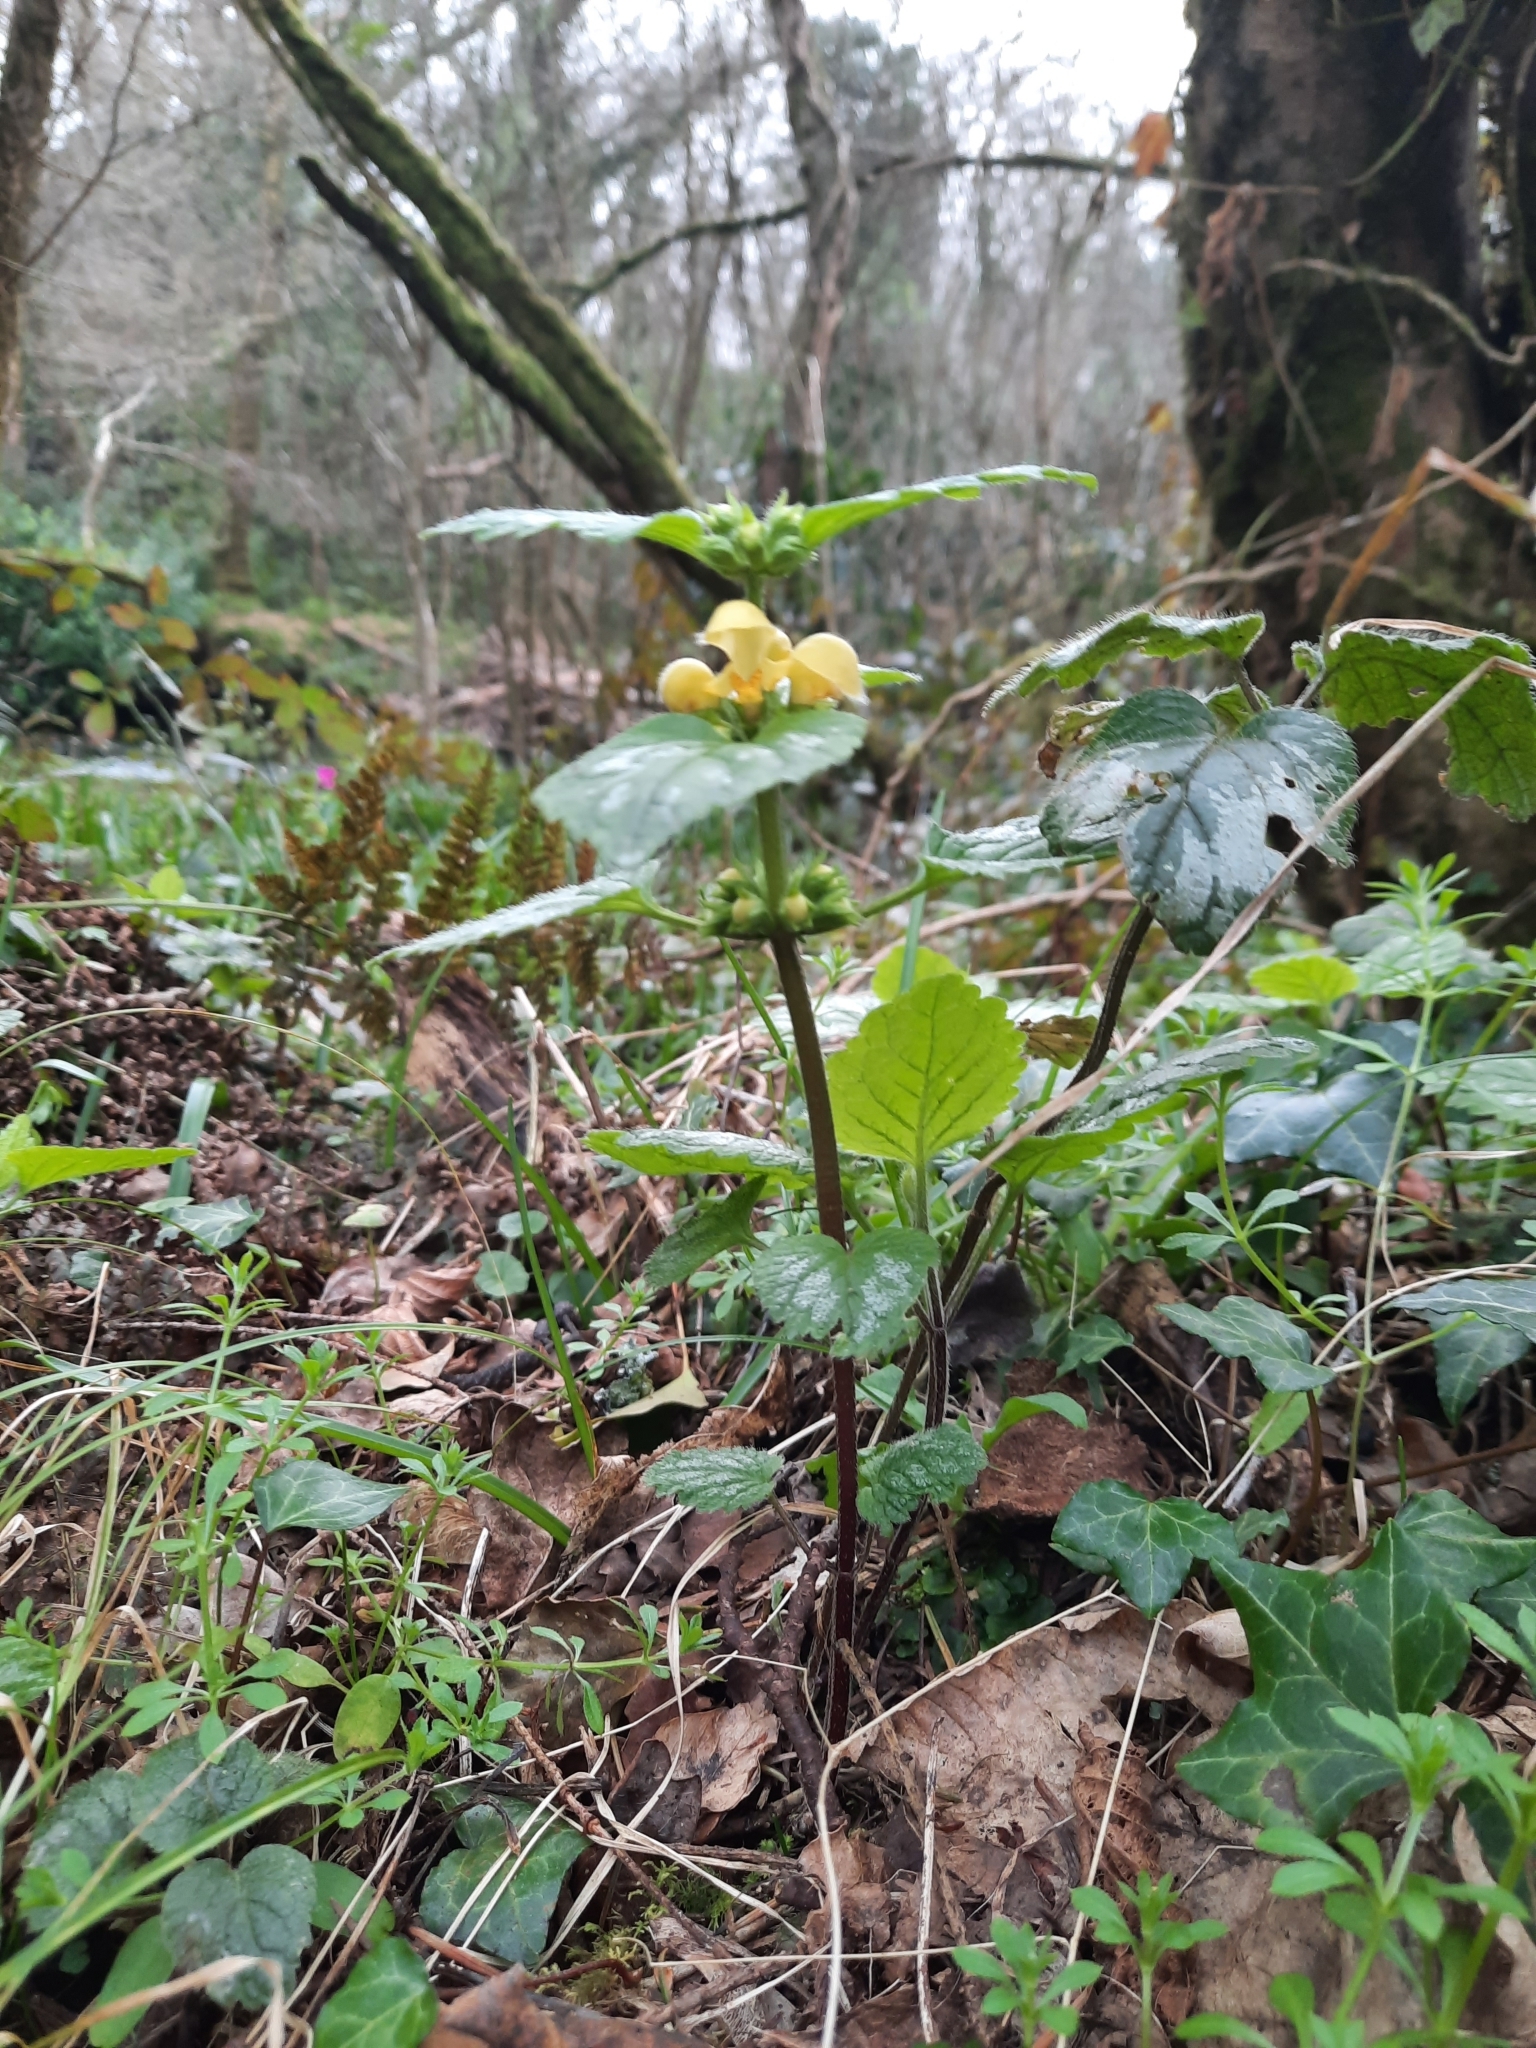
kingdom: Plantae
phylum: Tracheophyta
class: Magnoliopsida
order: Lamiales
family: Lamiaceae
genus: Lamium
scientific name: Lamium galeobdolon
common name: Yellow archangel
